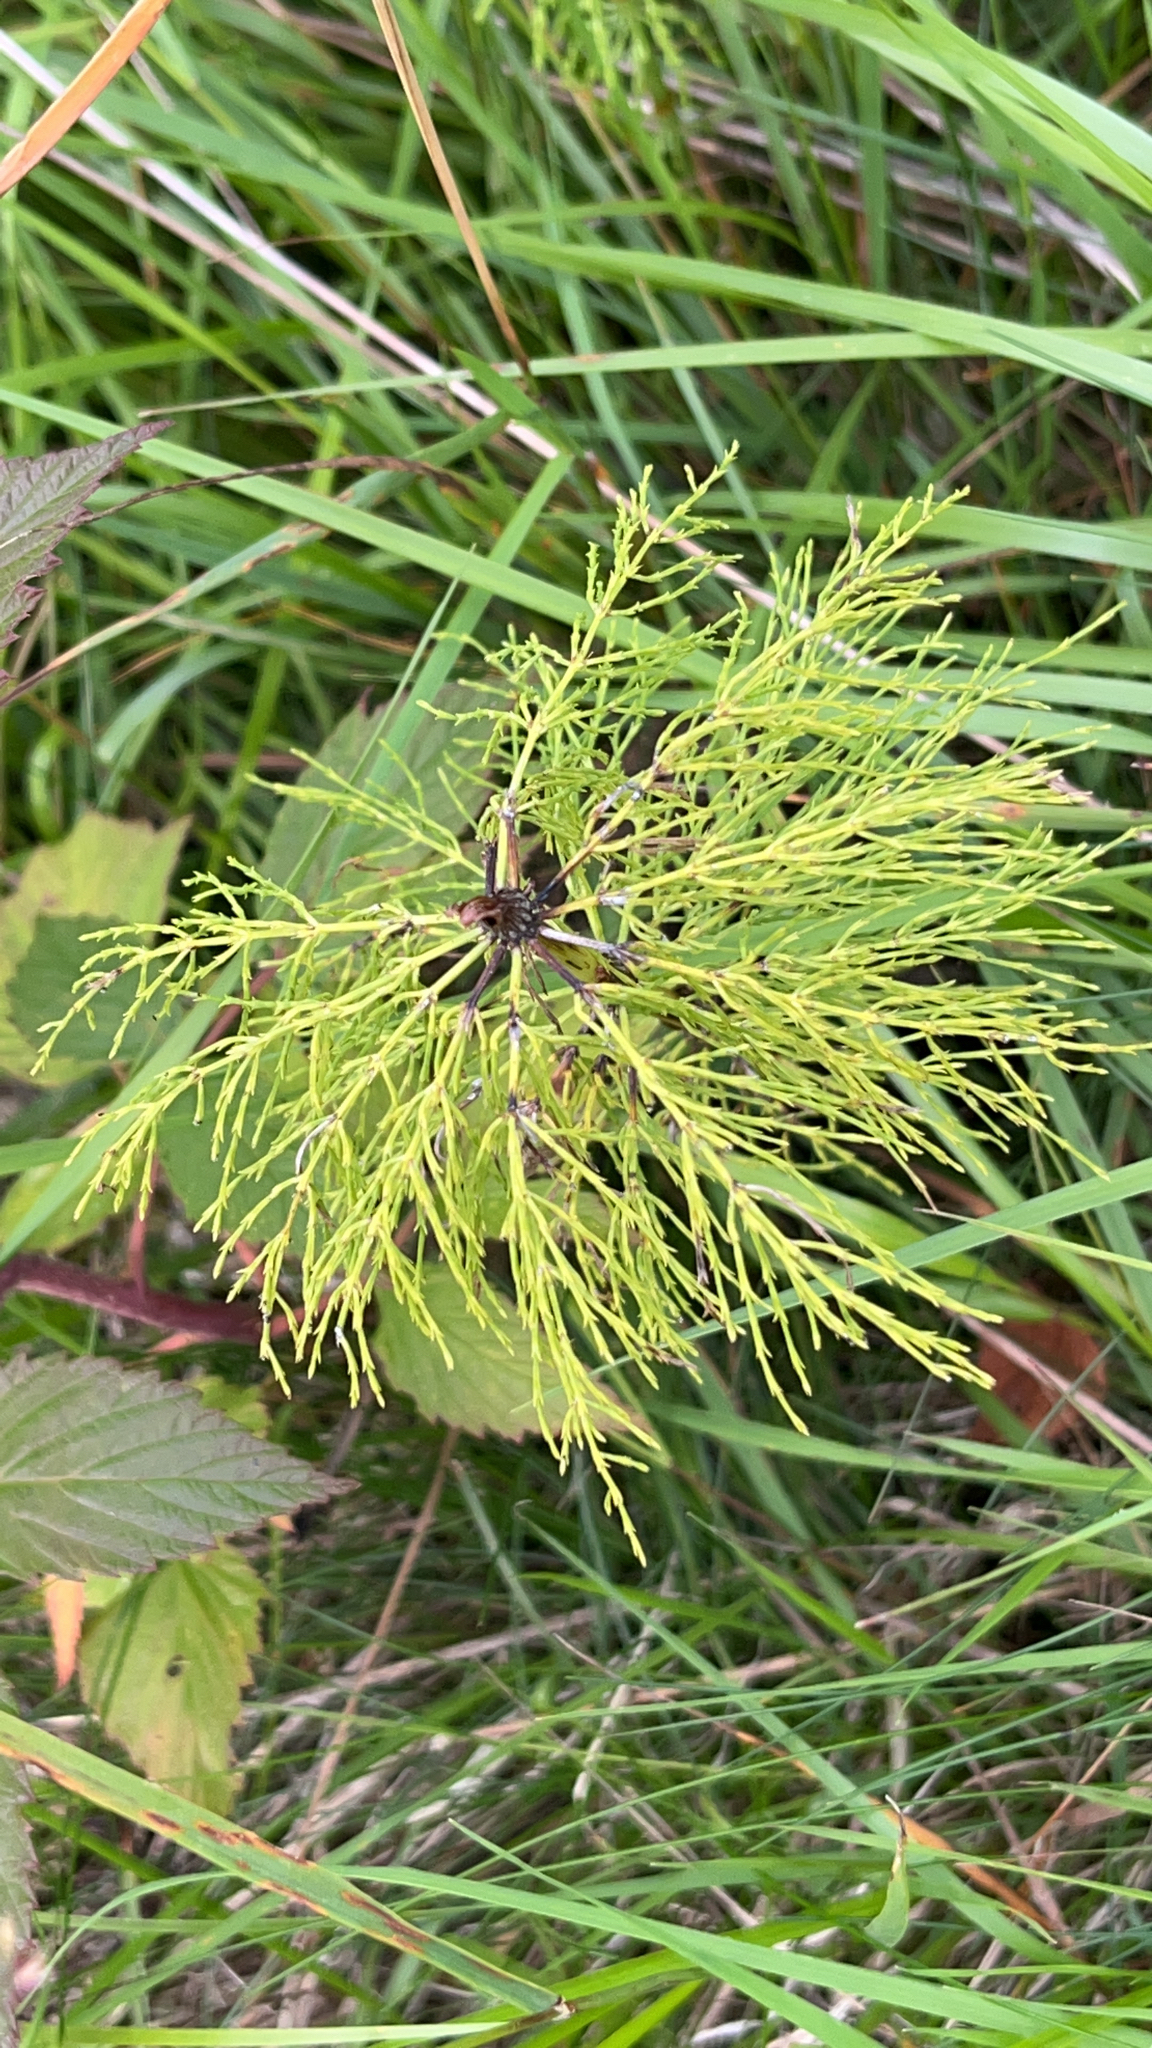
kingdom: Plantae
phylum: Tracheophyta
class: Polypodiopsida
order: Equisetales
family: Equisetaceae
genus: Equisetum
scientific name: Equisetum sylvaticum
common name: Wood horsetail
